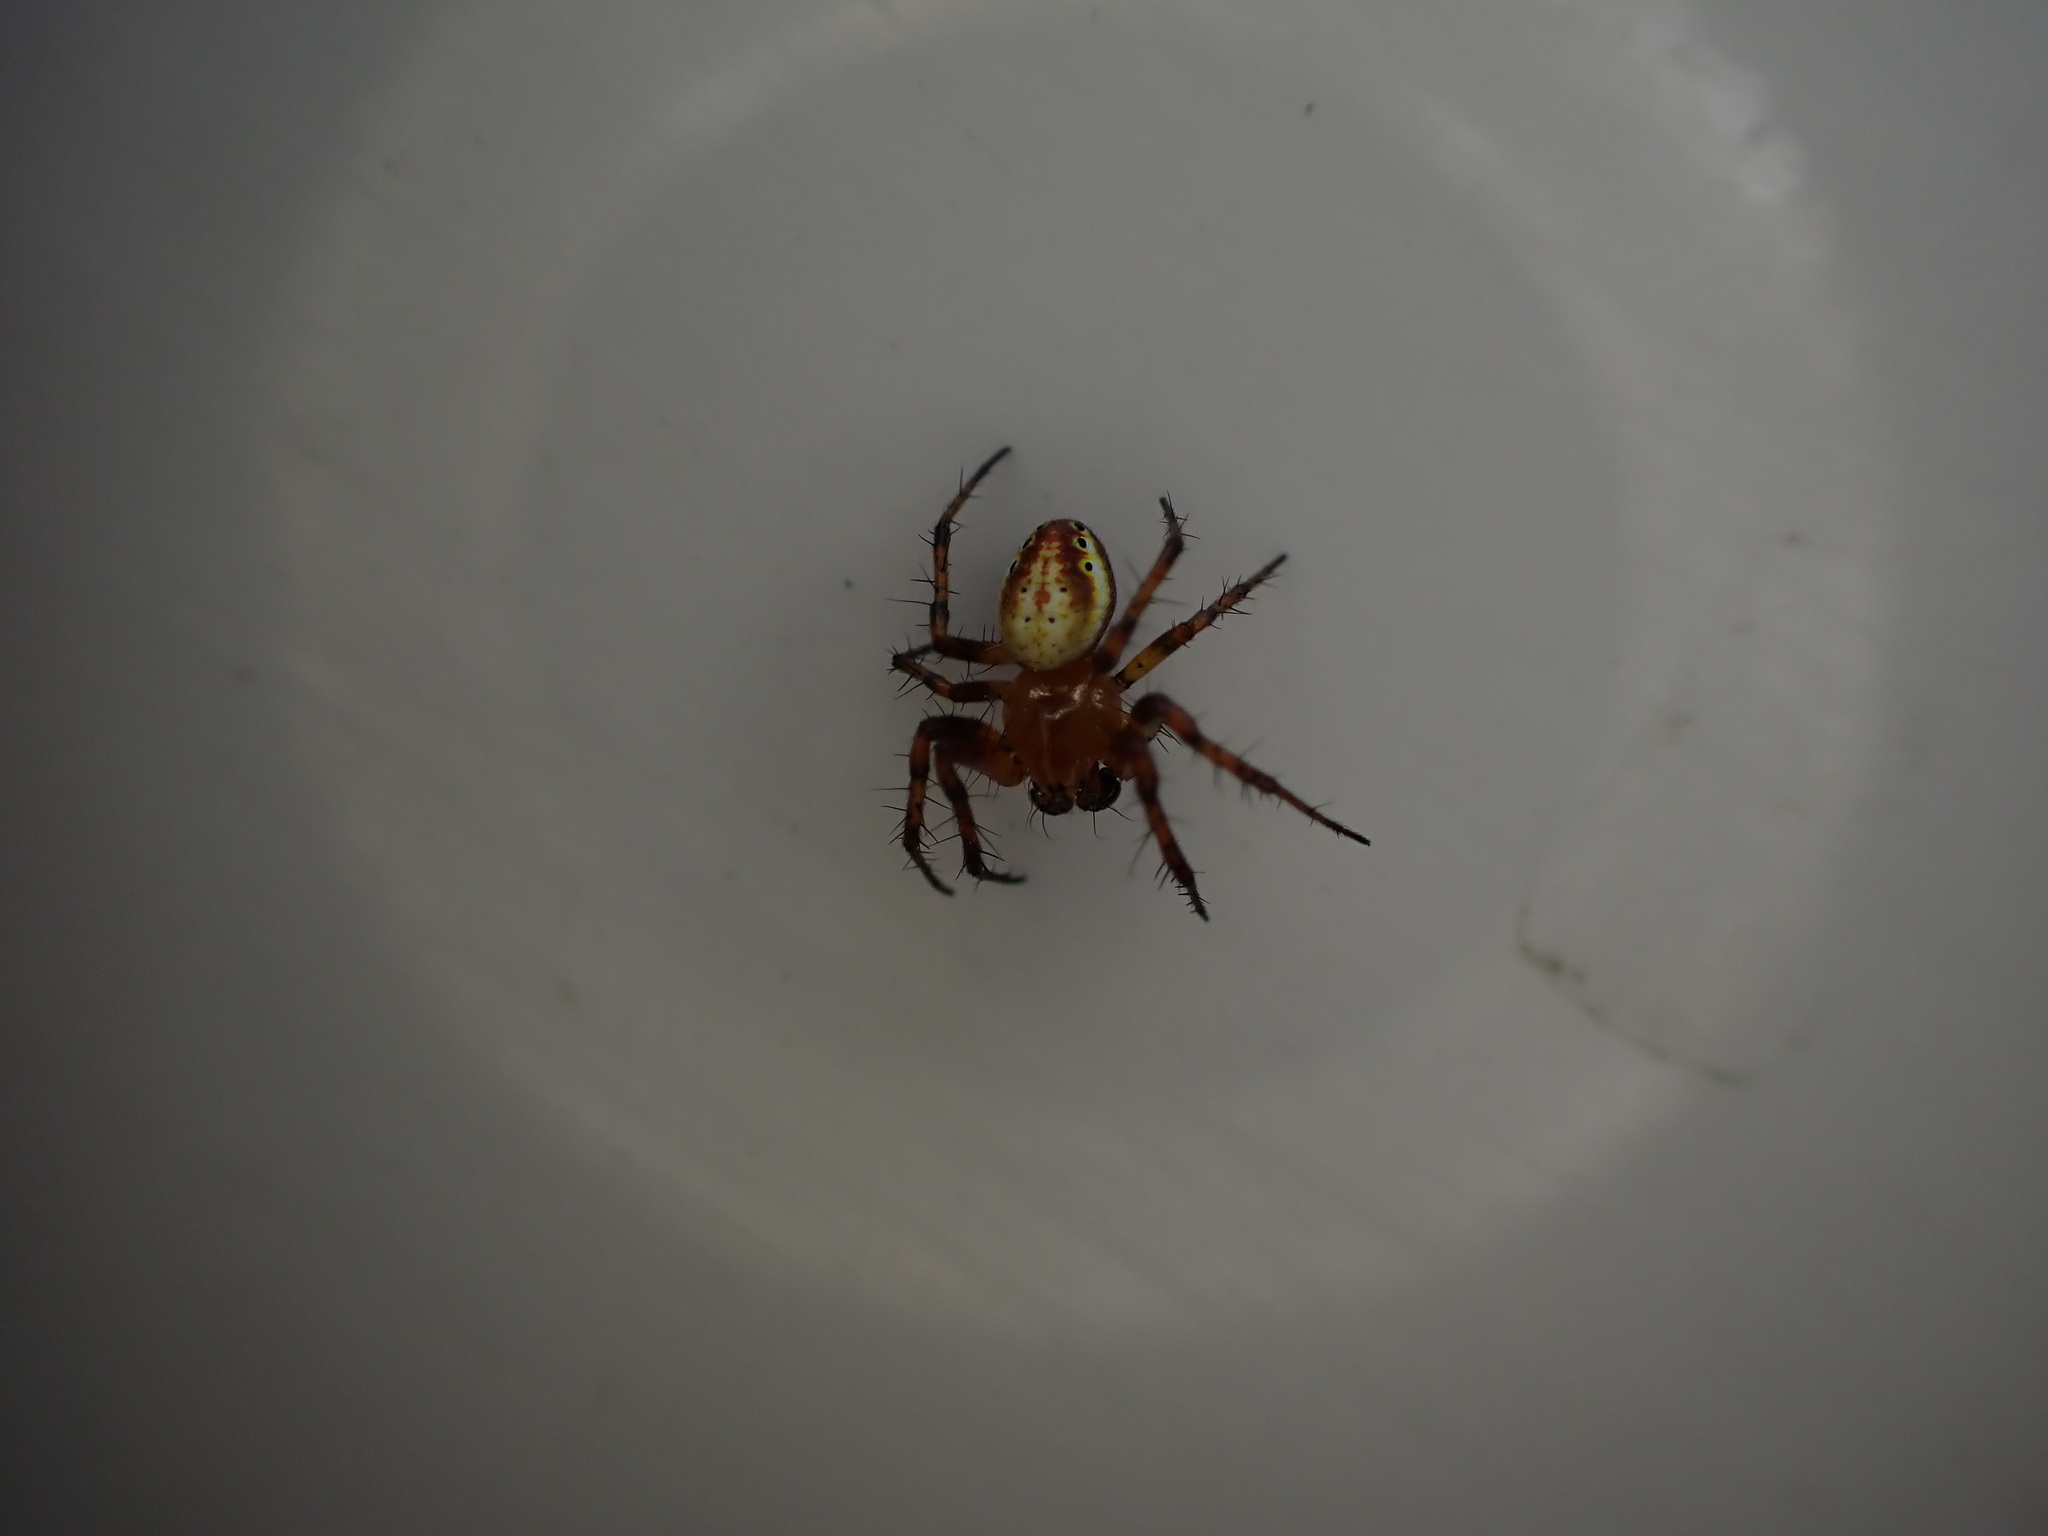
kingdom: Animalia
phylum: Arthropoda
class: Arachnida
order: Araneae
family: Araneidae
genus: Araniella
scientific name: Araniella displicata
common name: Sixspotted orb weaver
